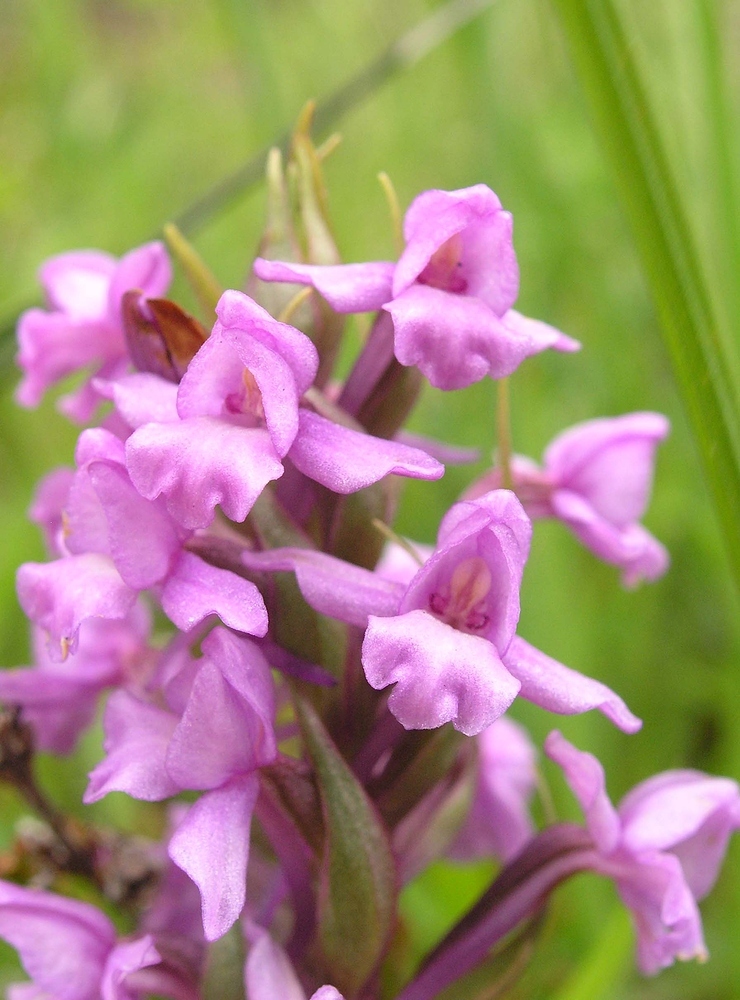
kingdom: Plantae
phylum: Tracheophyta
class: Liliopsida
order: Asparagales
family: Orchidaceae
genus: Gymnadenia
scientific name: Gymnadenia borealis
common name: Heath fragrant orchid
